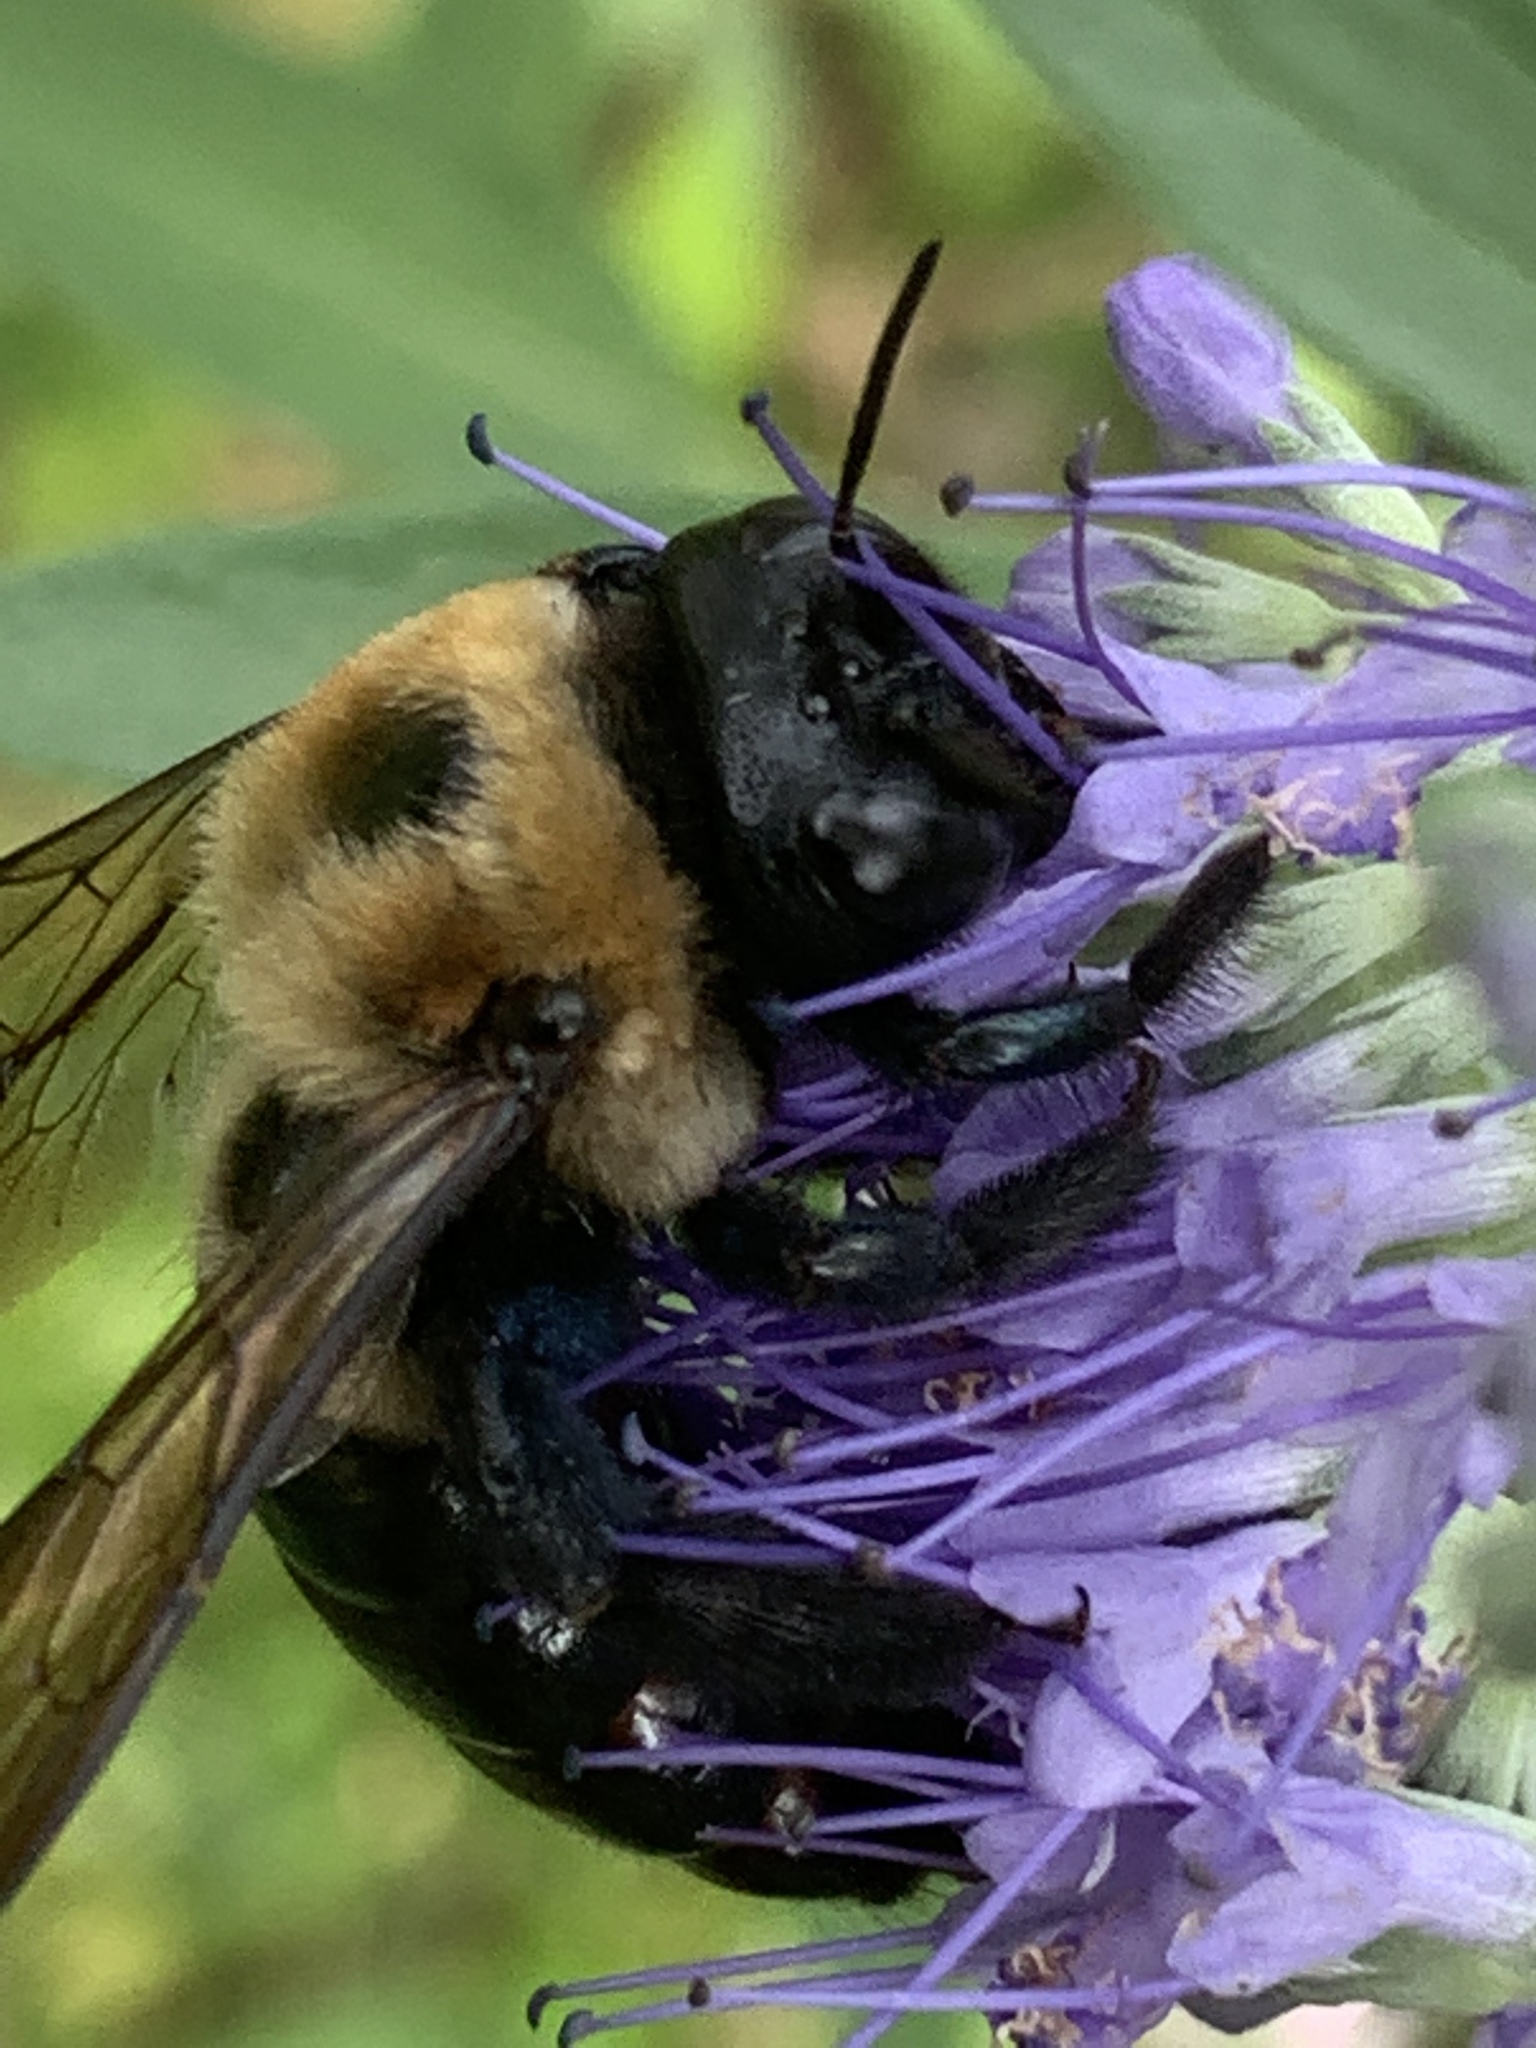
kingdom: Animalia
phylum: Arthropoda
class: Insecta
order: Hymenoptera
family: Apidae
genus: Xylocopa
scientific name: Xylocopa virginica
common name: Carpenter bee
